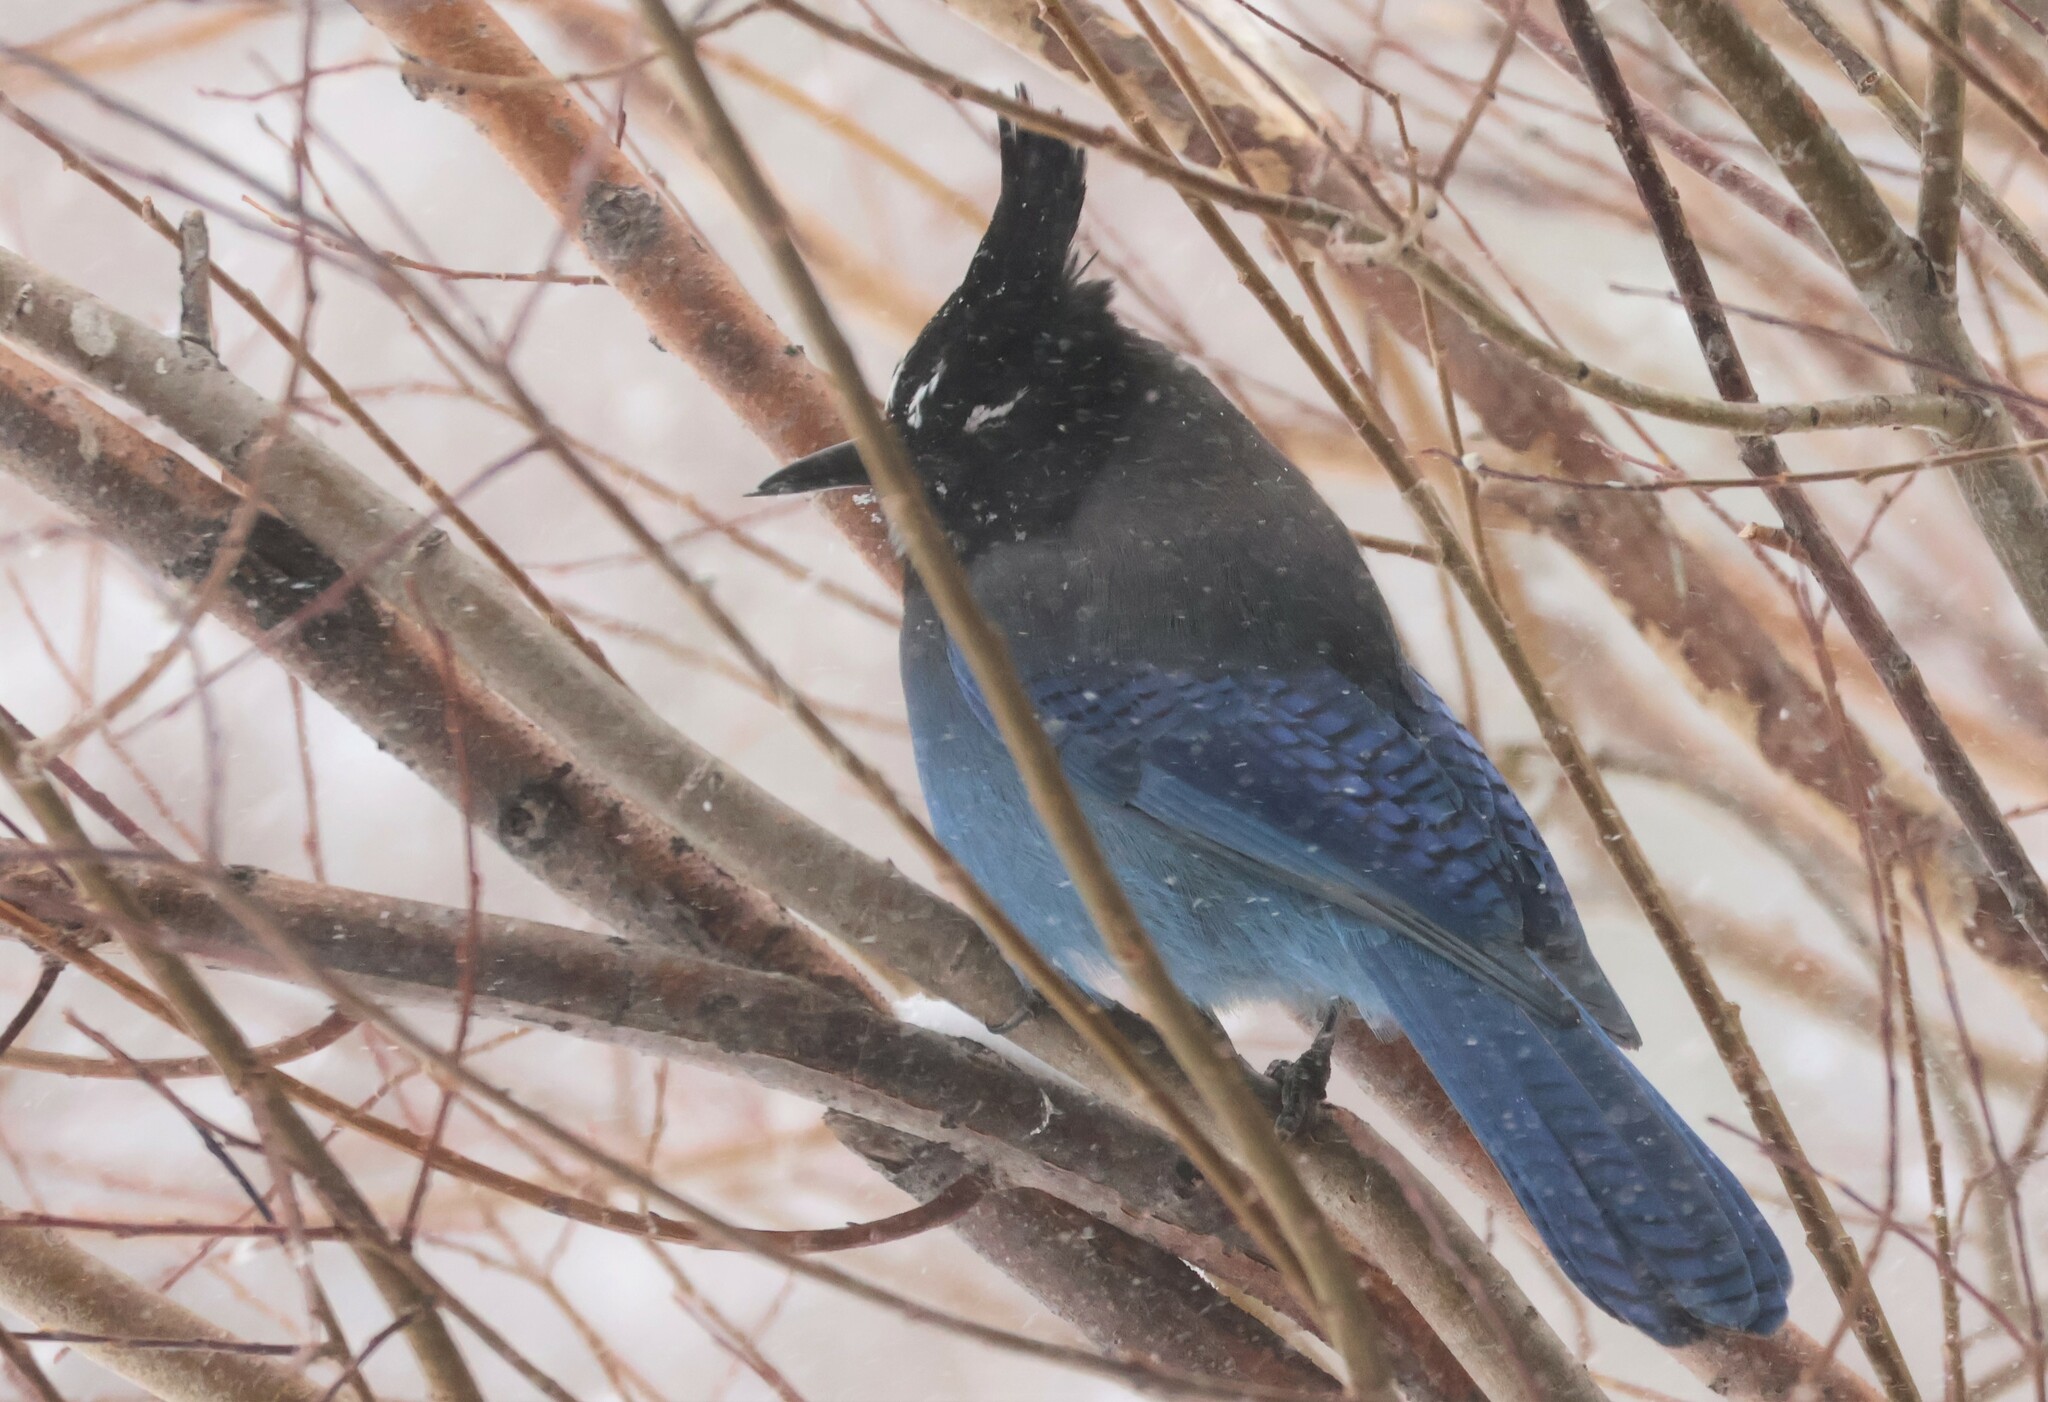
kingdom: Animalia
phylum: Chordata
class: Aves
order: Passeriformes
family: Corvidae
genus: Cyanocitta
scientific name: Cyanocitta stelleri
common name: Steller's jay
